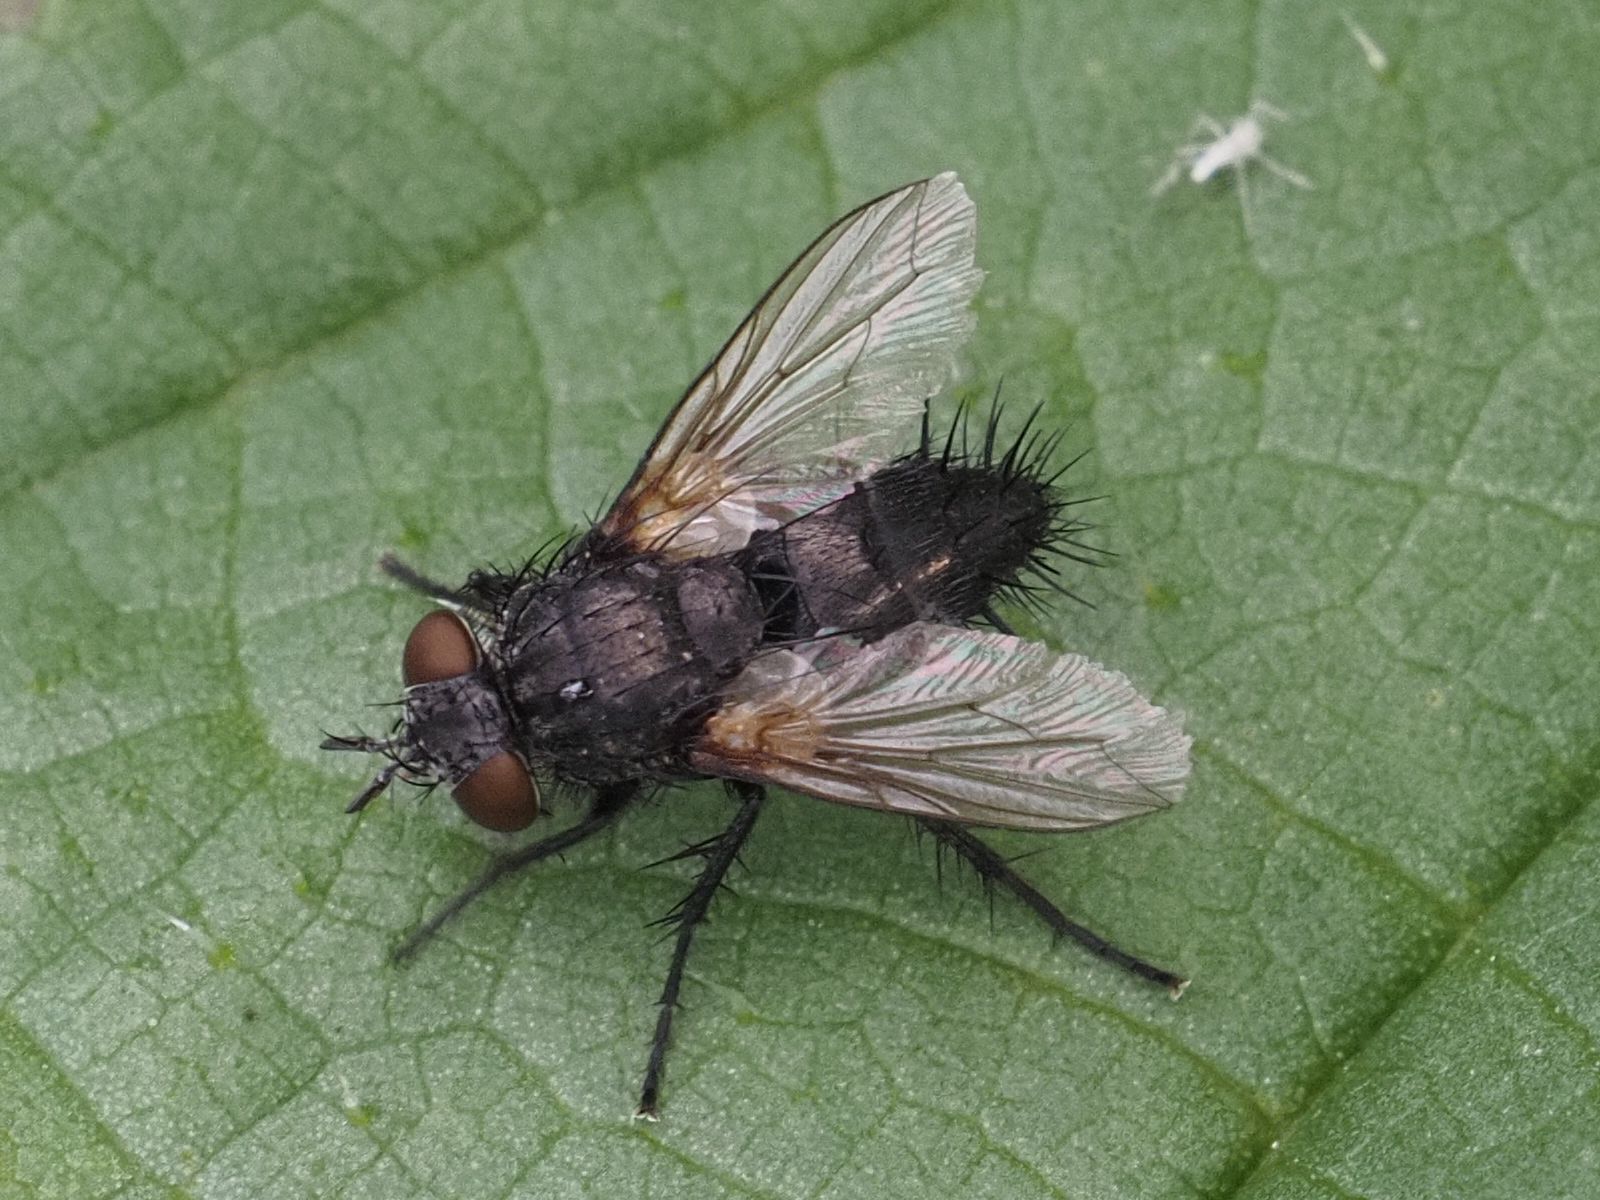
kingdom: Animalia
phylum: Arthropoda
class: Insecta
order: Diptera
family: Tachinidae
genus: Voria
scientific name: Voria ruralis
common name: Parasitic fly
